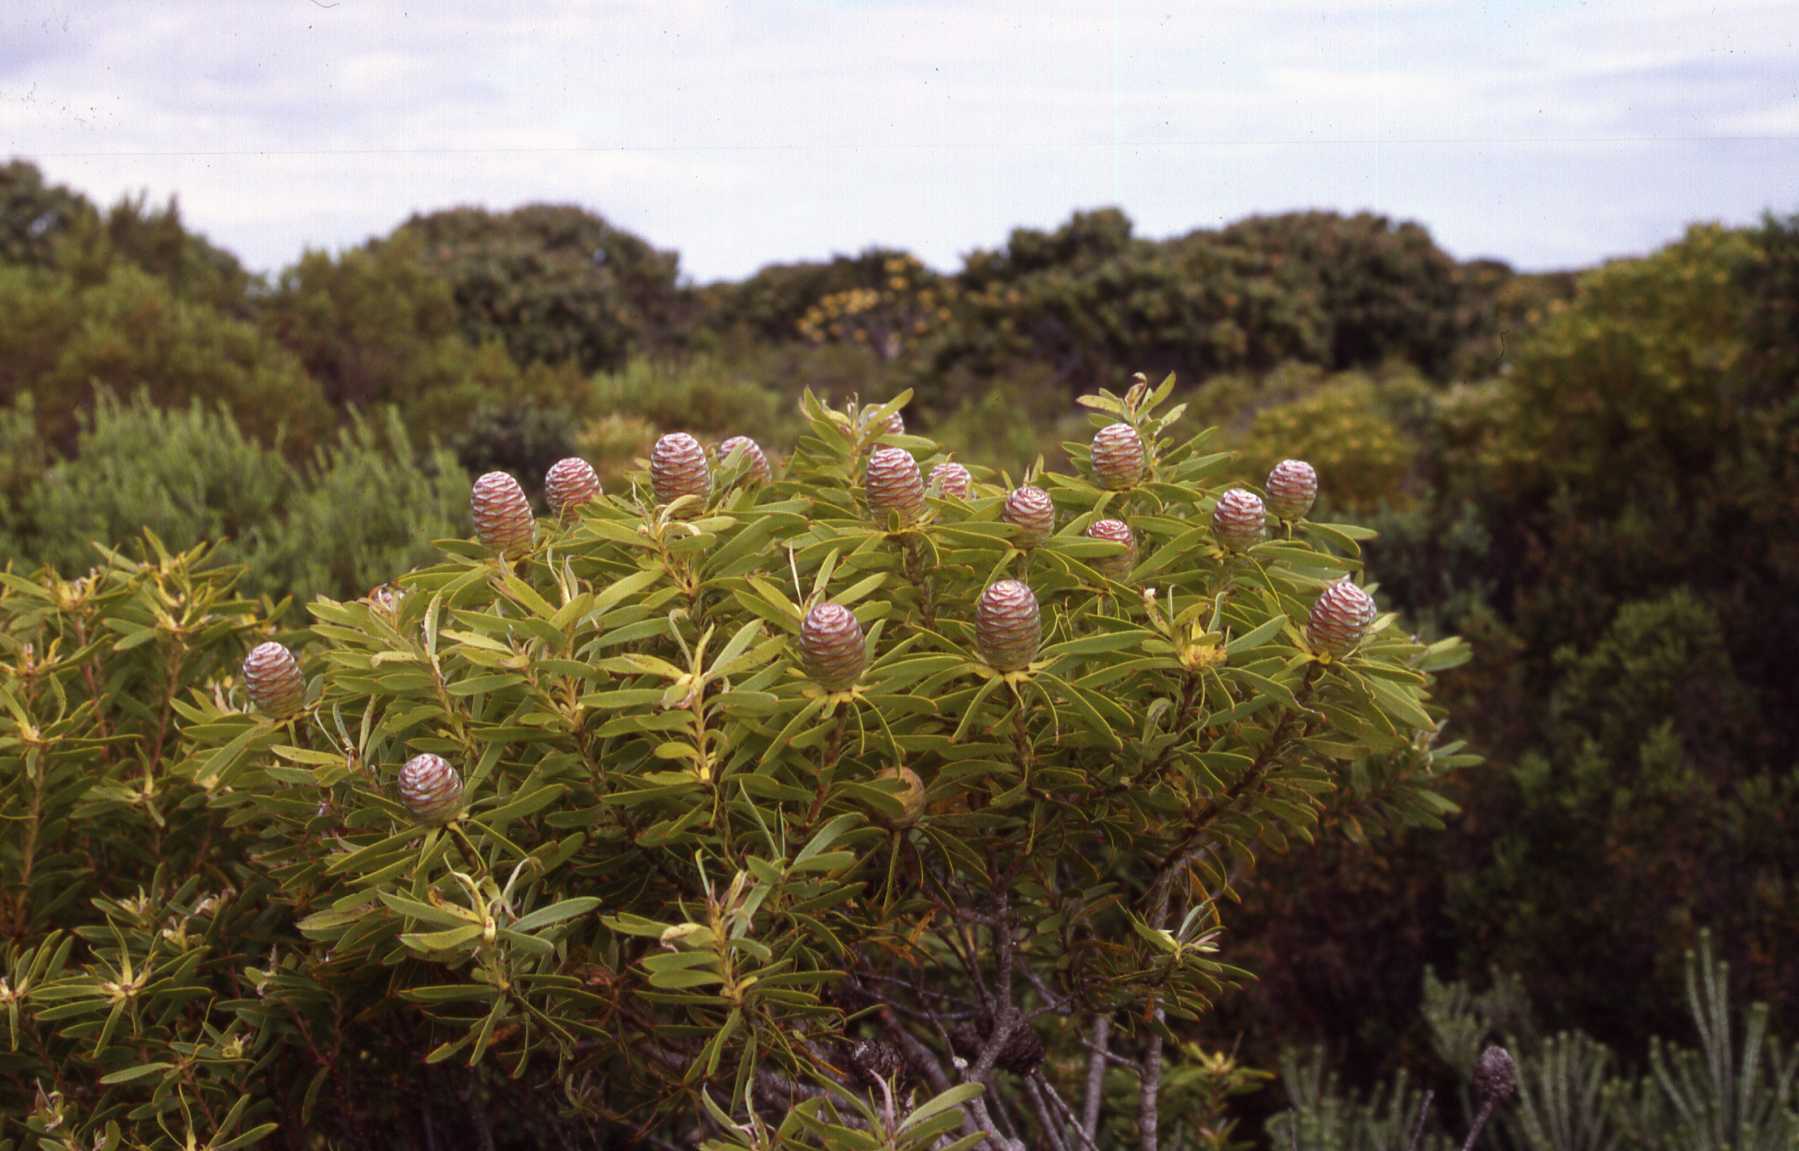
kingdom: Plantae
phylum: Tracheophyta
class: Magnoliopsida
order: Proteales
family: Proteaceae
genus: Leucadendron
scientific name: Leucadendron coniferum
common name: Dune conebush
